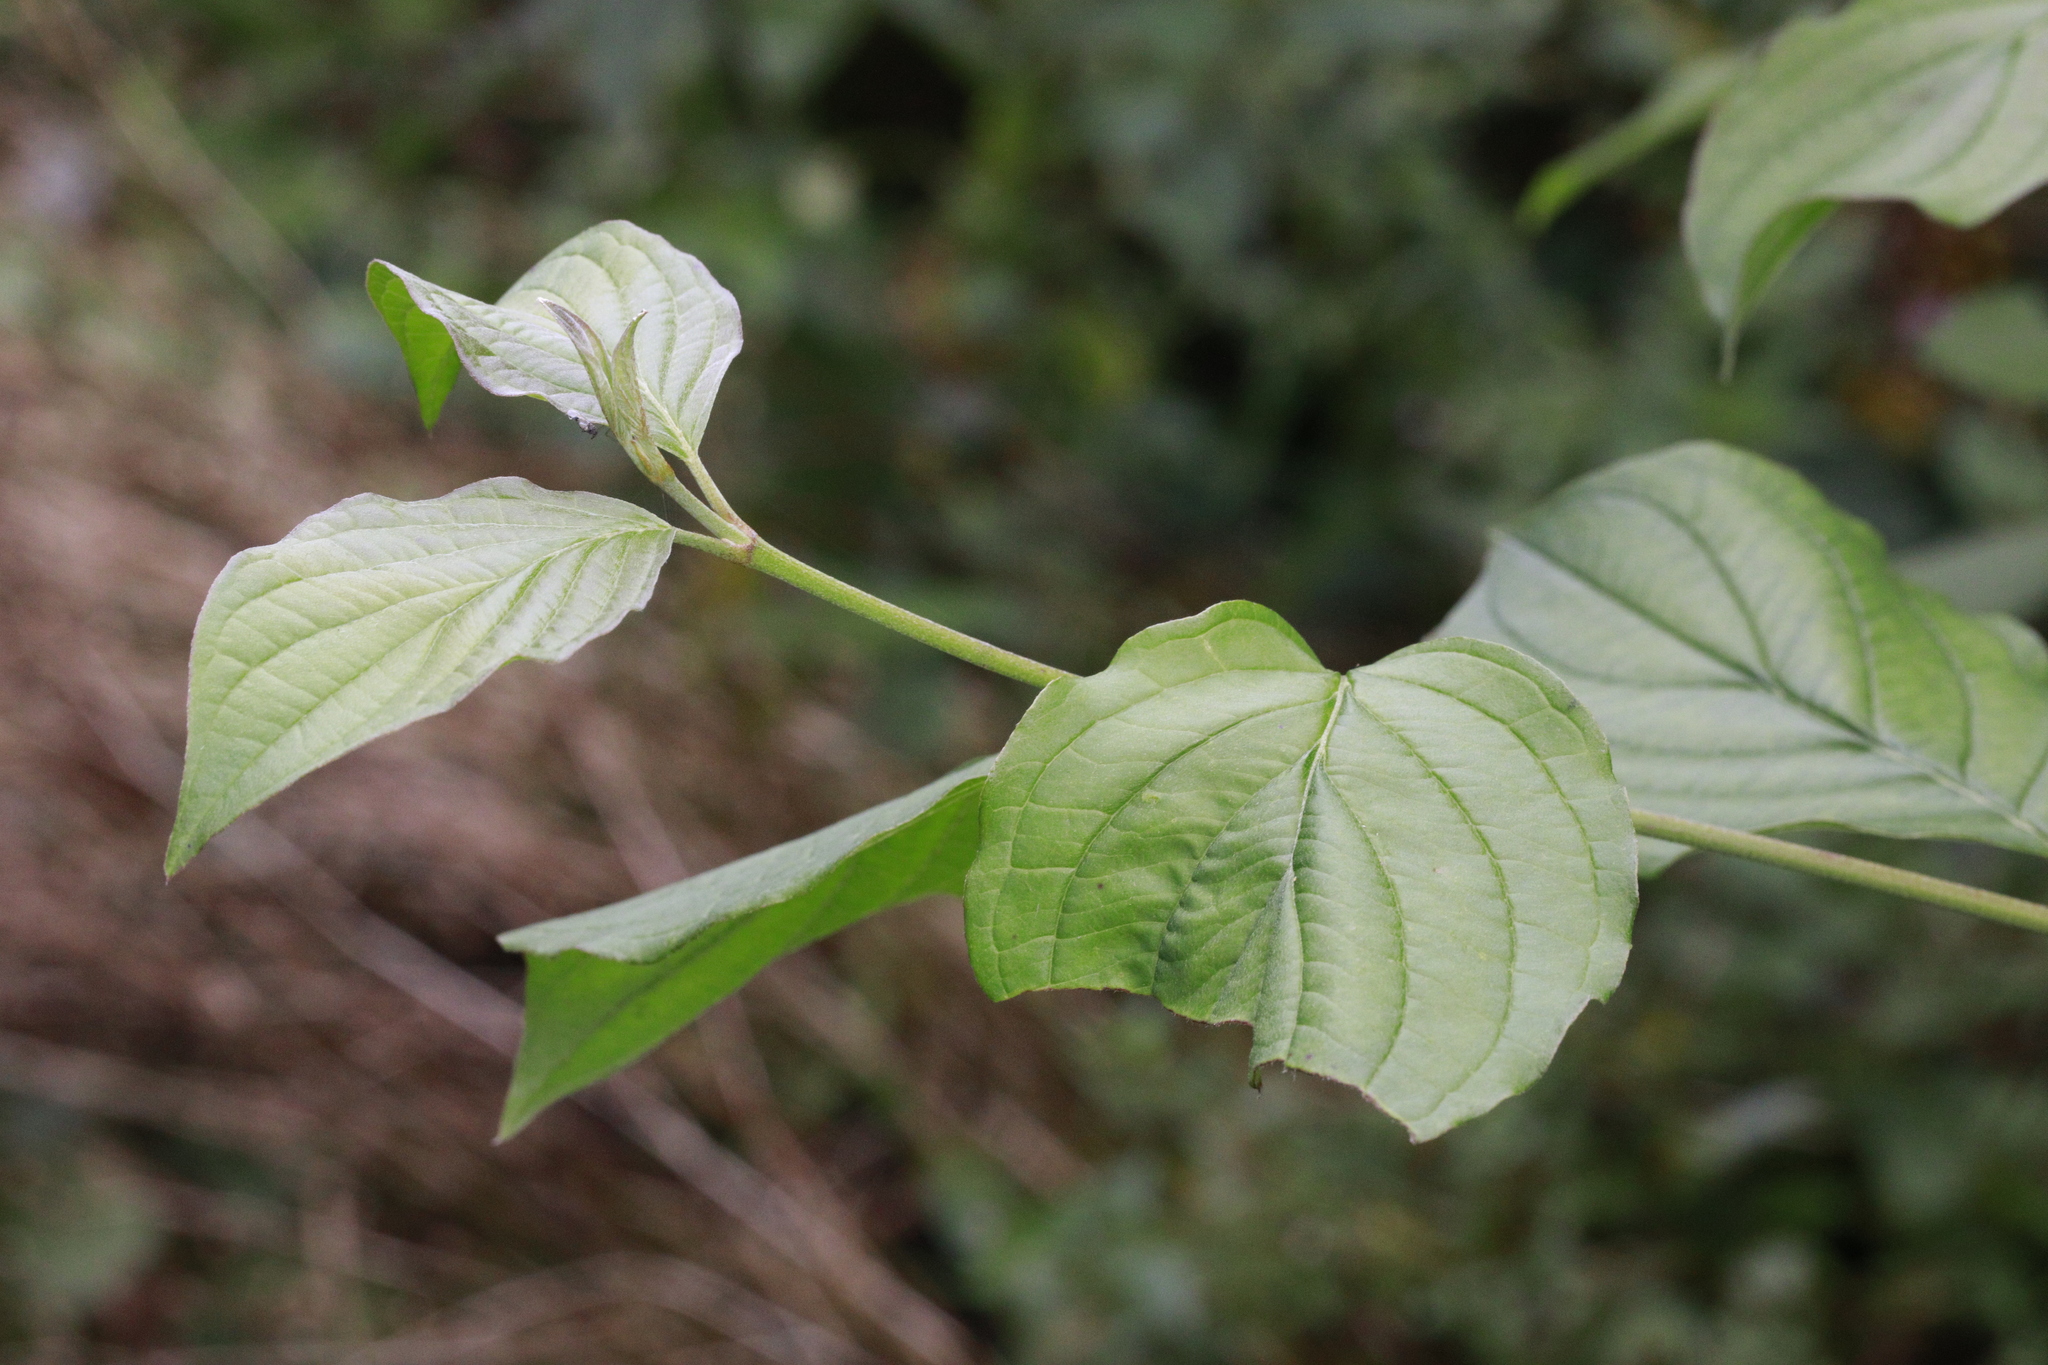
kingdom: Plantae
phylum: Tracheophyta
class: Magnoliopsida
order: Cornales
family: Cornaceae
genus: Cornus
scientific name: Cornus sanguinea
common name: Dogwood
